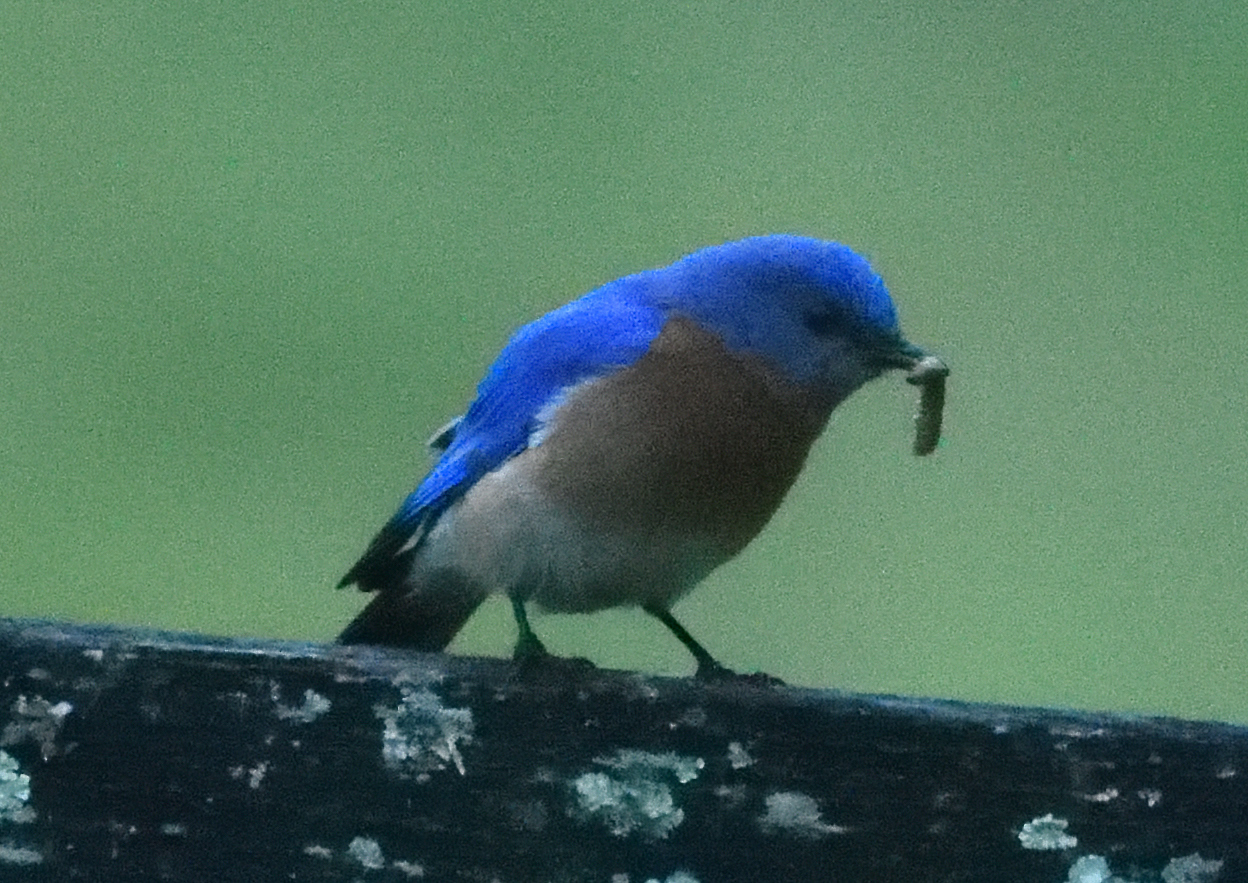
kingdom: Animalia
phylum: Chordata
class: Aves
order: Passeriformes
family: Turdidae
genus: Sialia
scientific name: Sialia sialis
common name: Eastern bluebird
